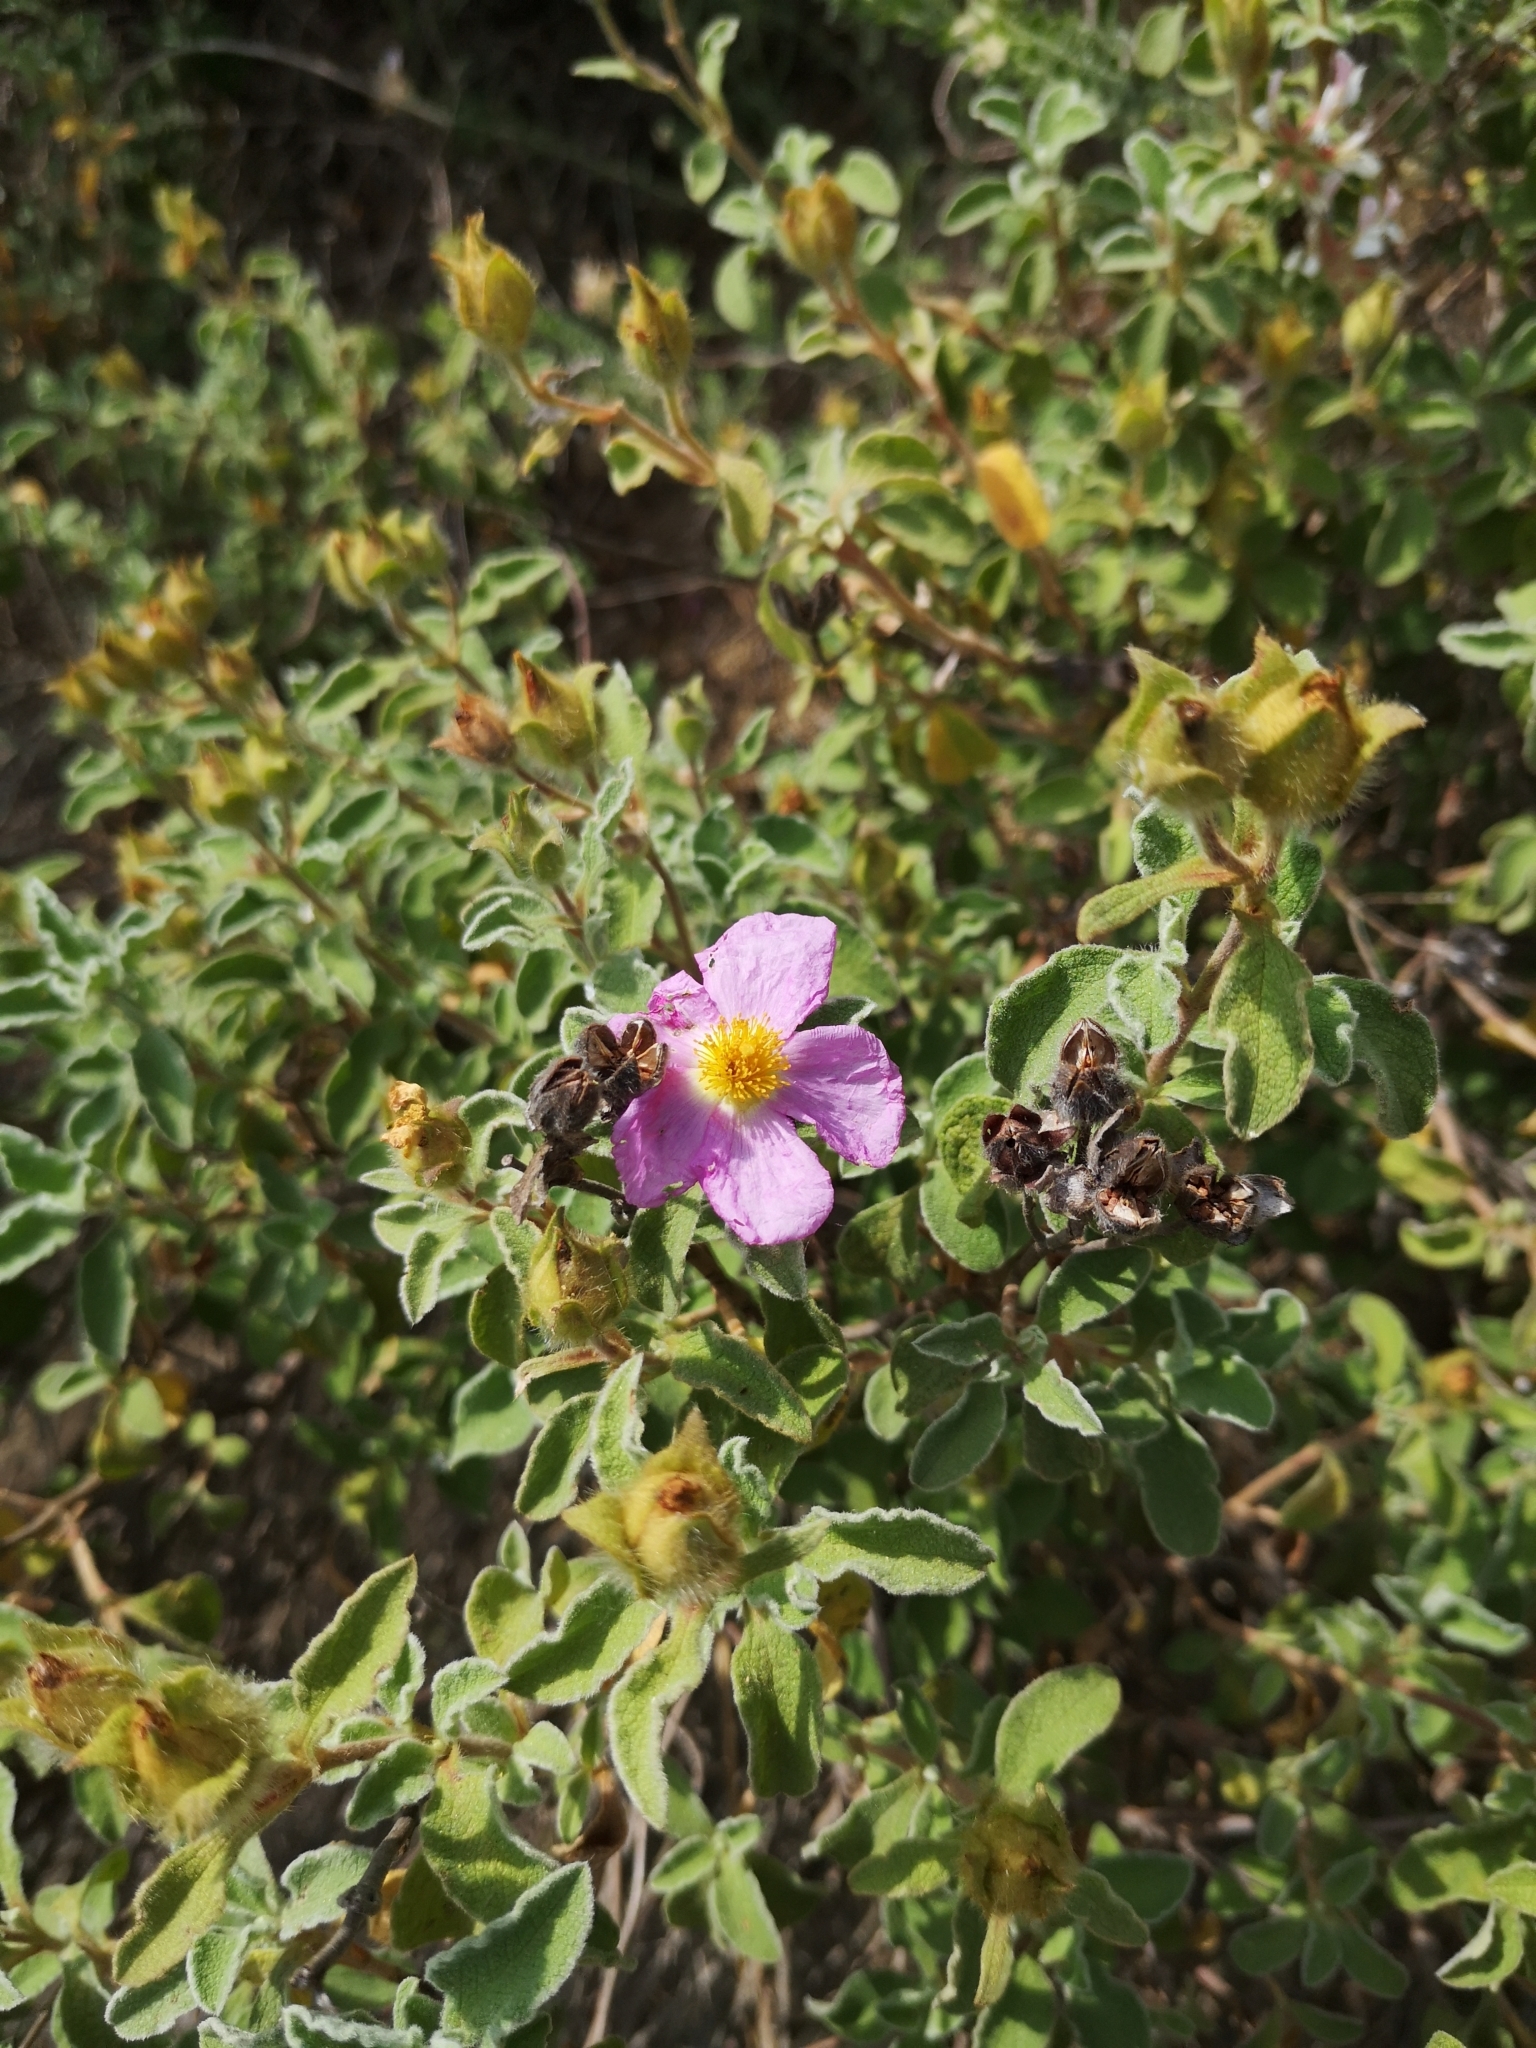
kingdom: Plantae
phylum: Tracheophyta
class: Magnoliopsida
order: Malvales
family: Cistaceae
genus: Cistus
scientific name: Cistus tauricus
